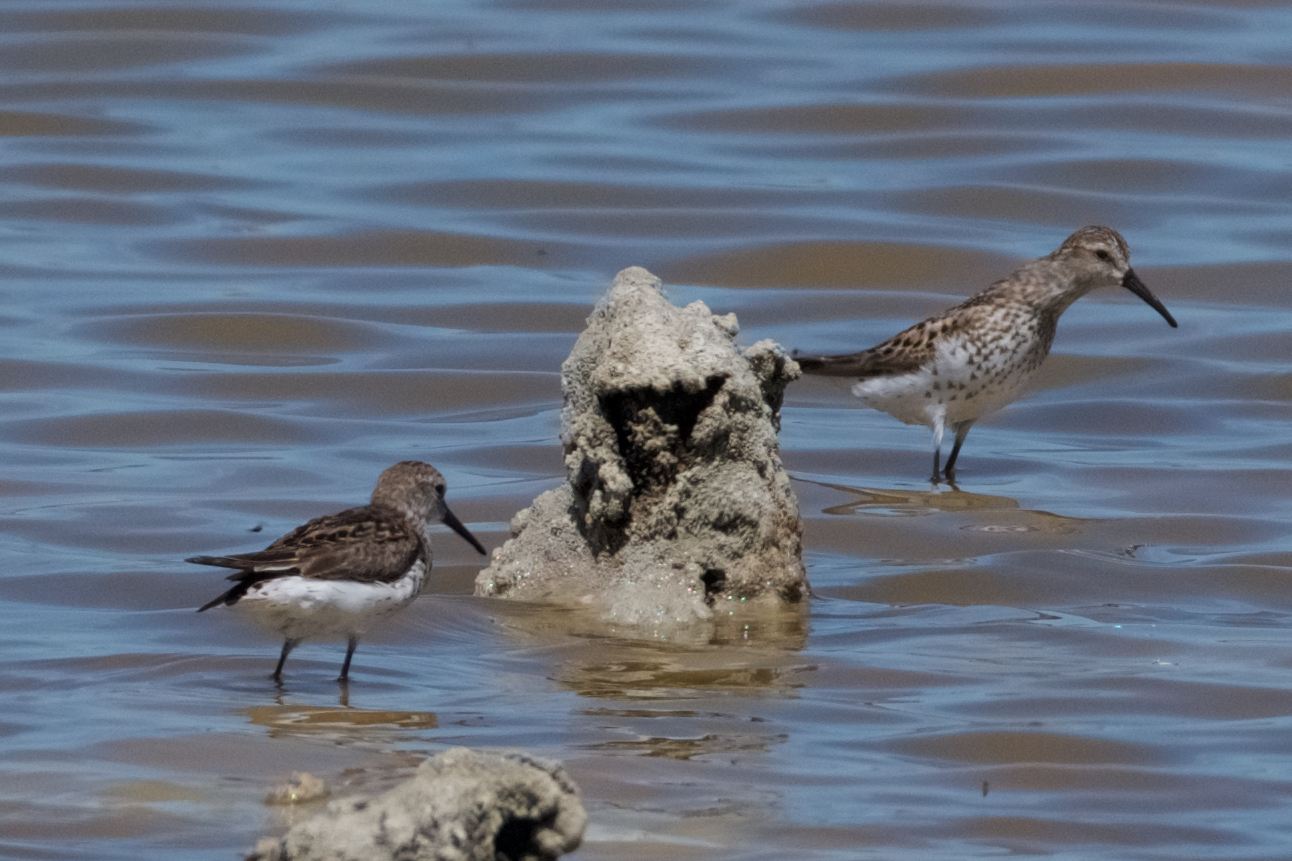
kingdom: Animalia
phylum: Chordata
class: Aves
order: Charadriiformes
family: Scolopacidae
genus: Calidris
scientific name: Calidris mauri
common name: Western sandpiper
